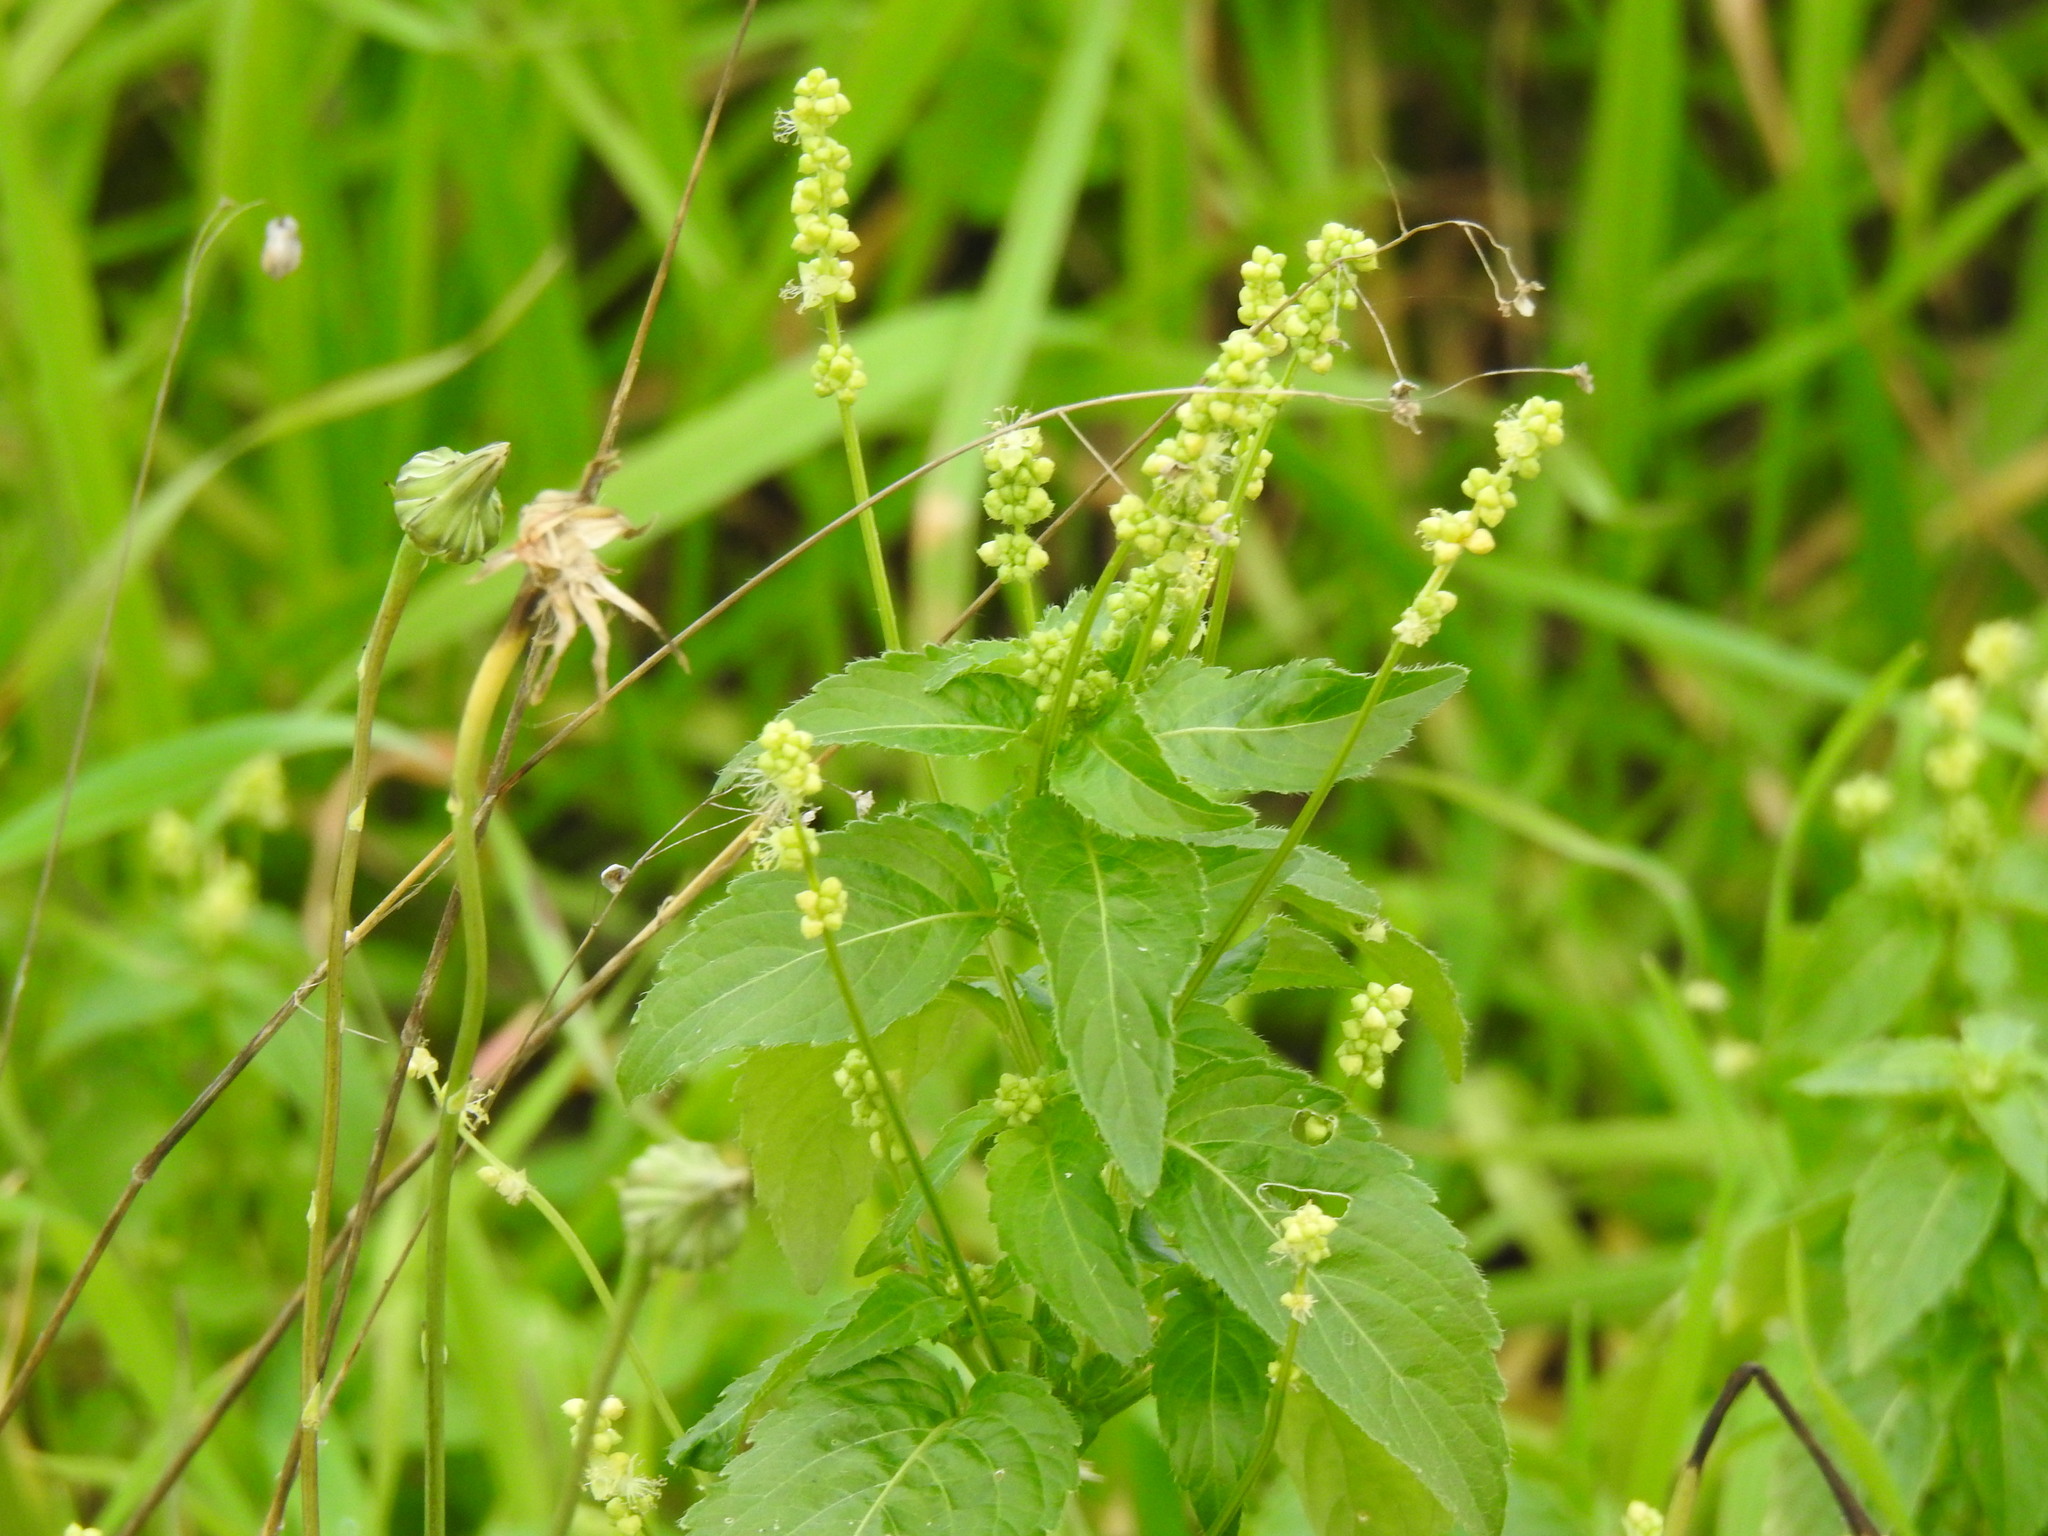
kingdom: Plantae
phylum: Tracheophyta
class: Magnoliopsida
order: Malpighiales
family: Euphorbiaceae
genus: Mercurialis
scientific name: Mercurialis annua
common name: Annual mercury
